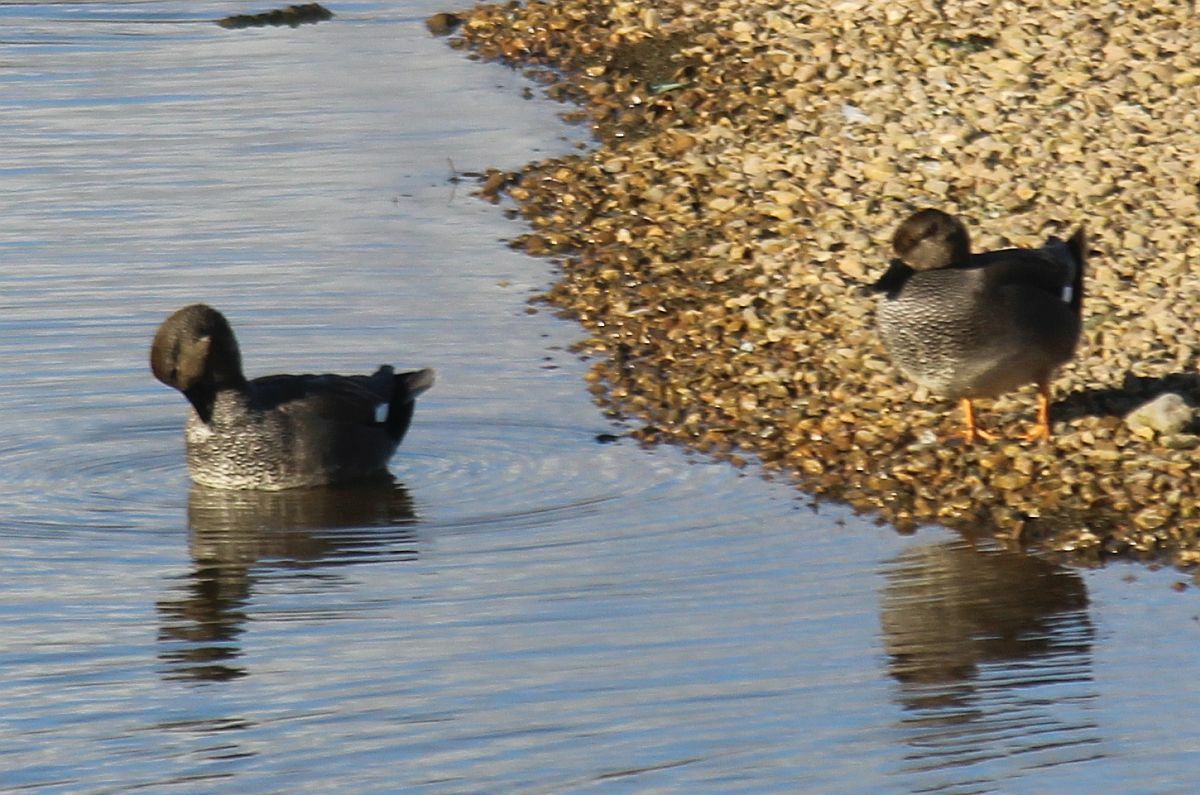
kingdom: Animalia
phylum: Chordata
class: Aves
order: Anseriformes
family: Anatidae
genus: Mareca
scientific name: Mareca strepera
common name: Gadwall
